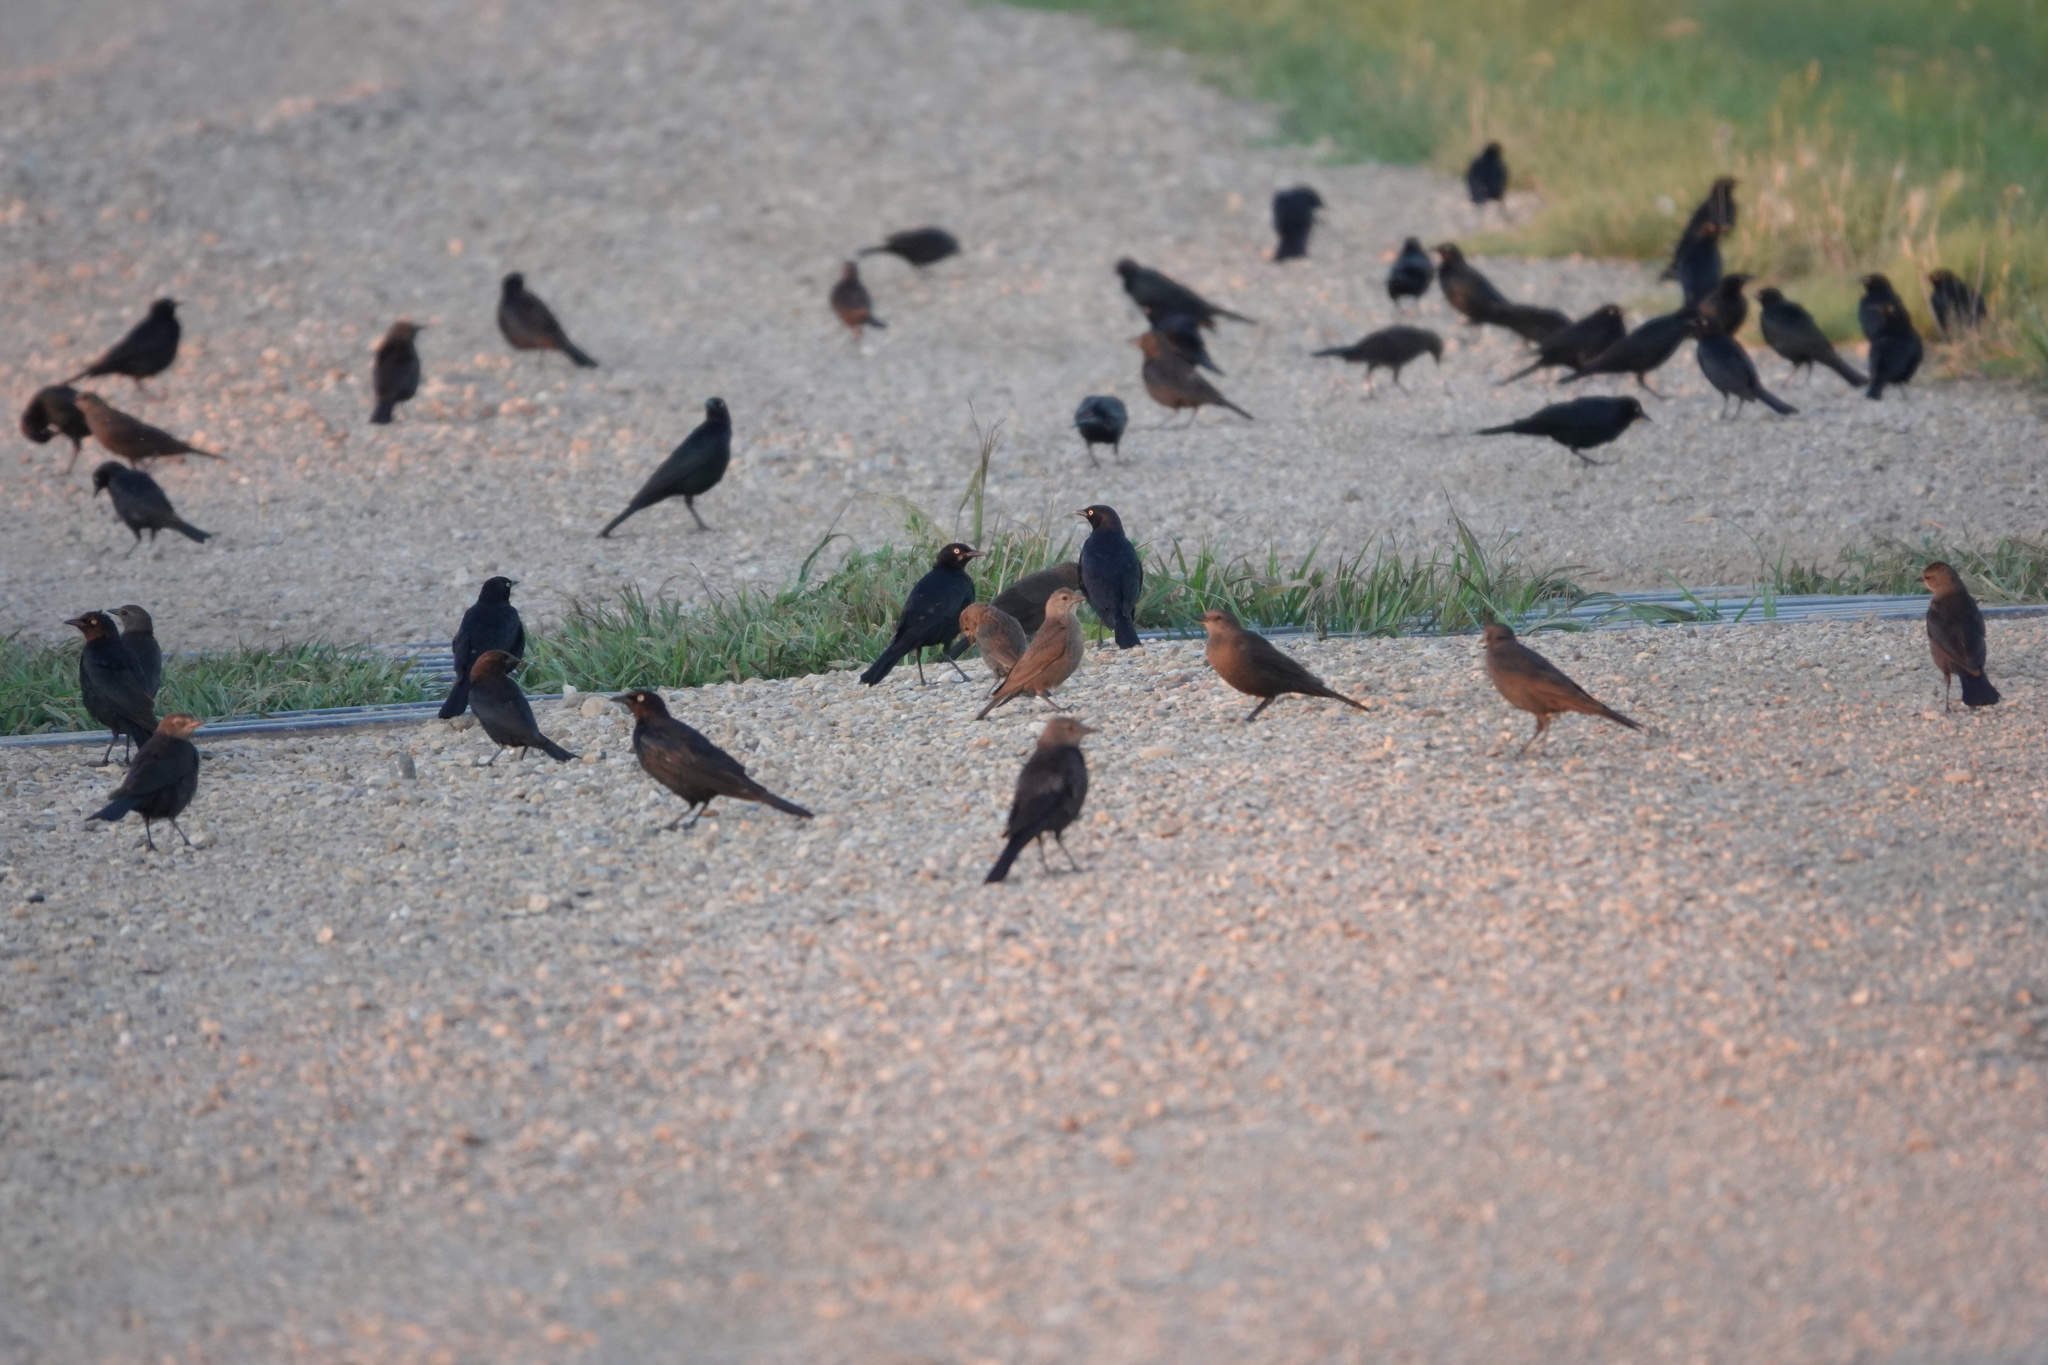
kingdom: Animalia
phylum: Chordata
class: Aves
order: Passeriformes
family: Icteridae
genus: Euphagus
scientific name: Euphagus cyanocephalus
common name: Brewer's blackbird
